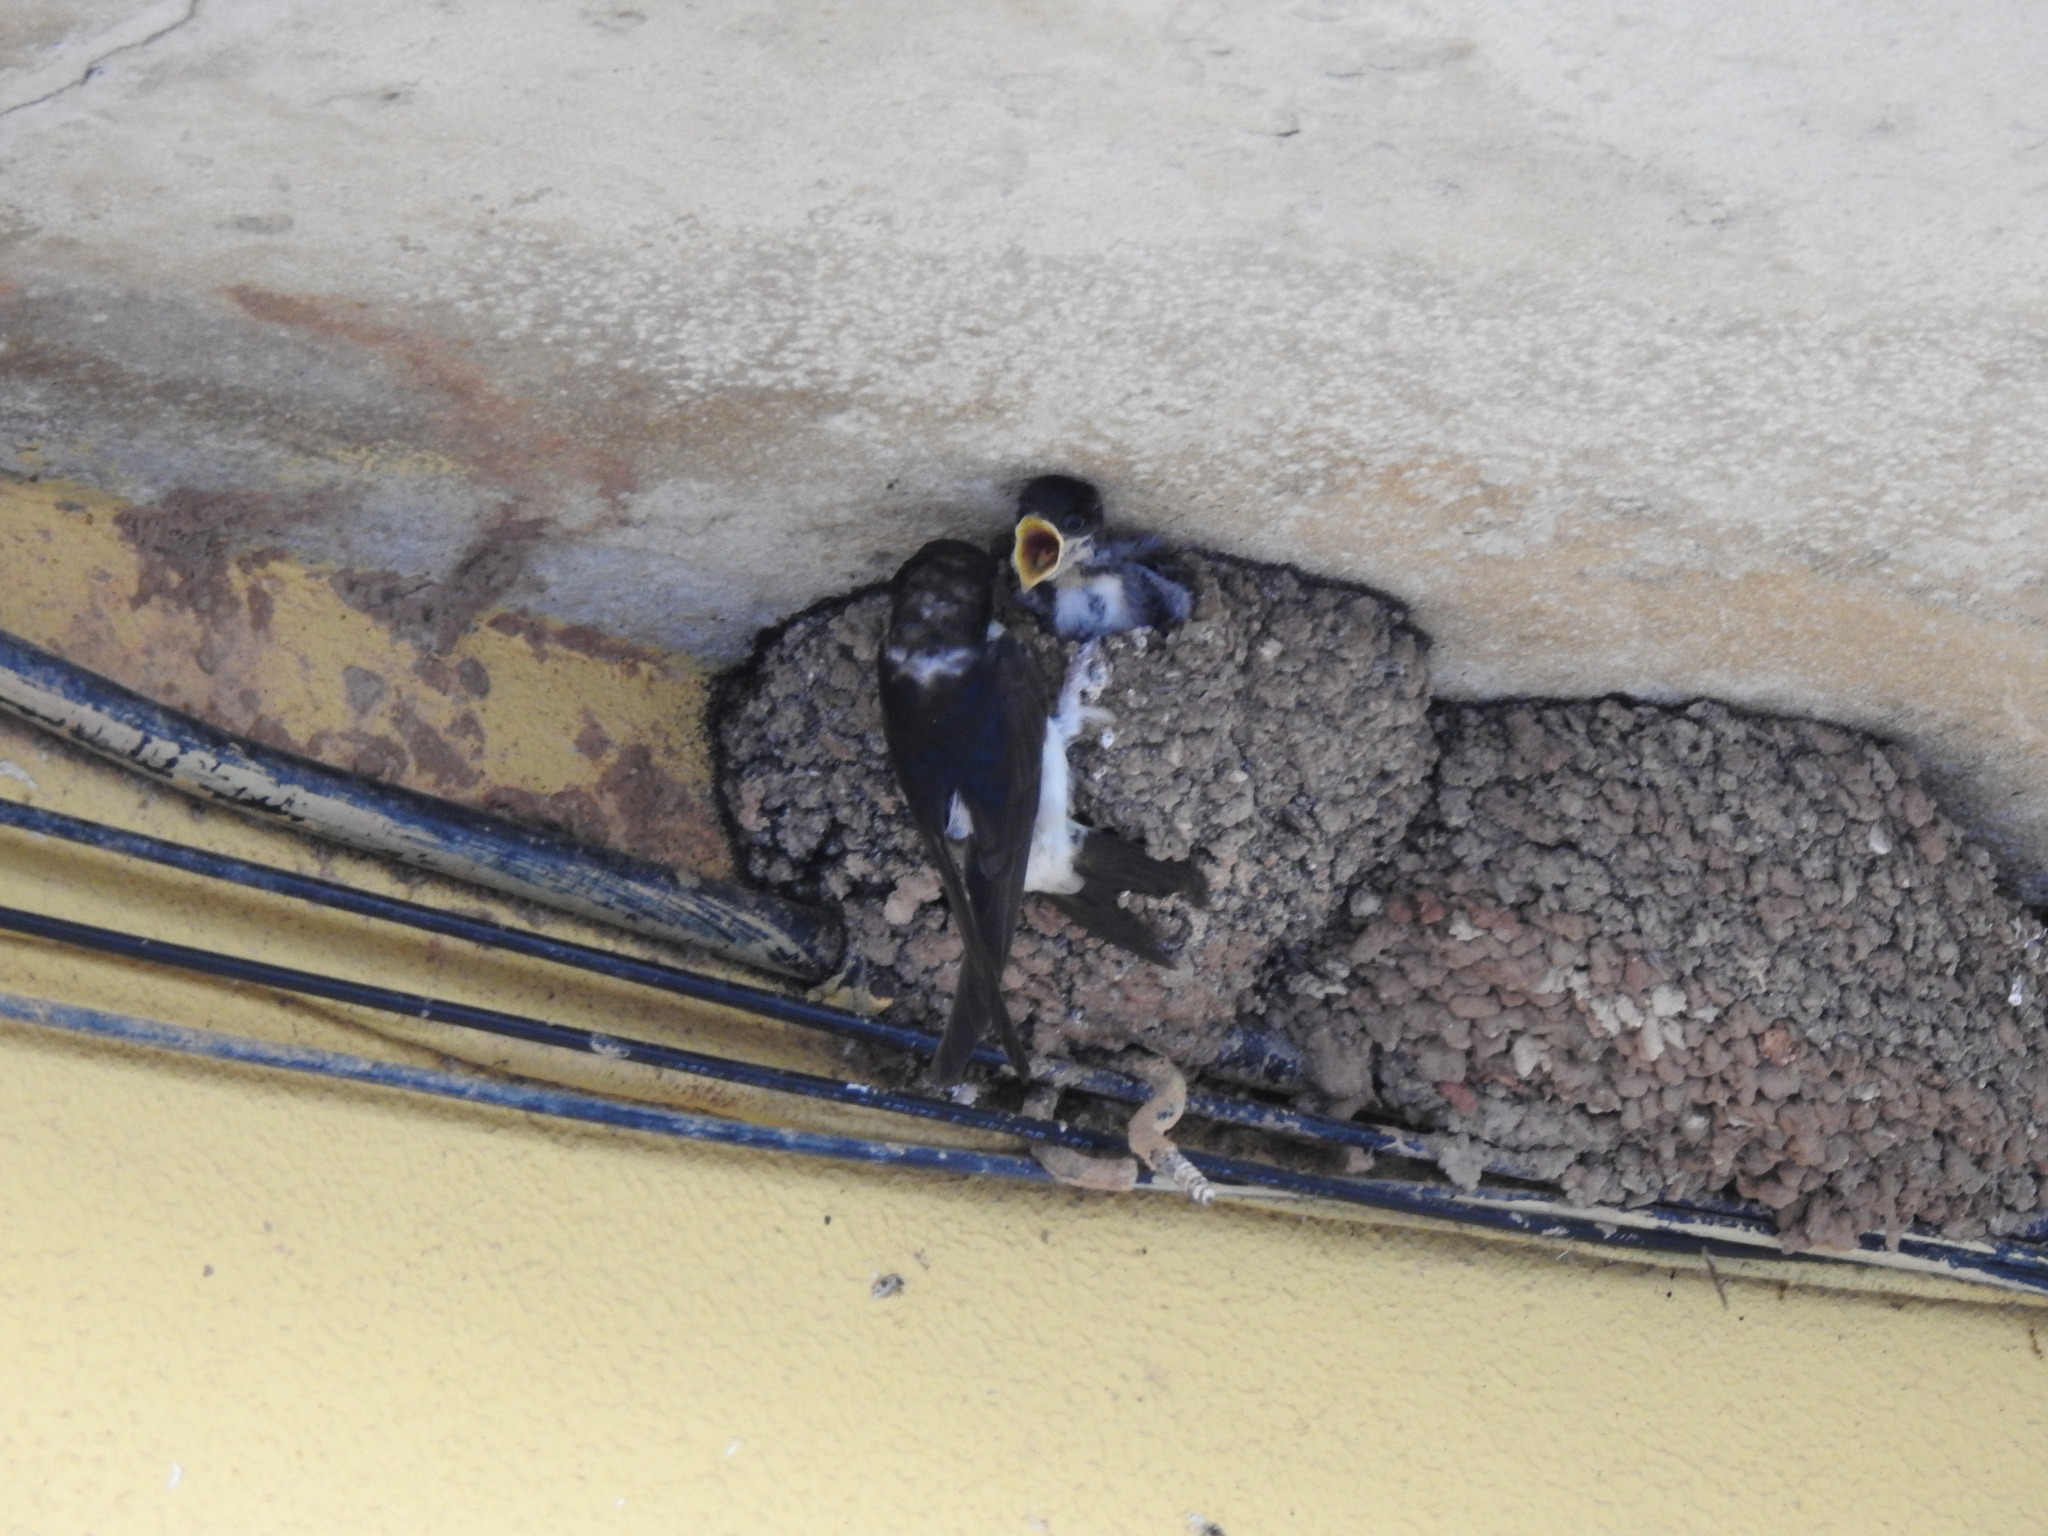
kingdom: Animalia
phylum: Chordata
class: Aves
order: Passeriformes
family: Hirundinidae
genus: Delichon
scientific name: Delichon urbicum
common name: Common house martin
